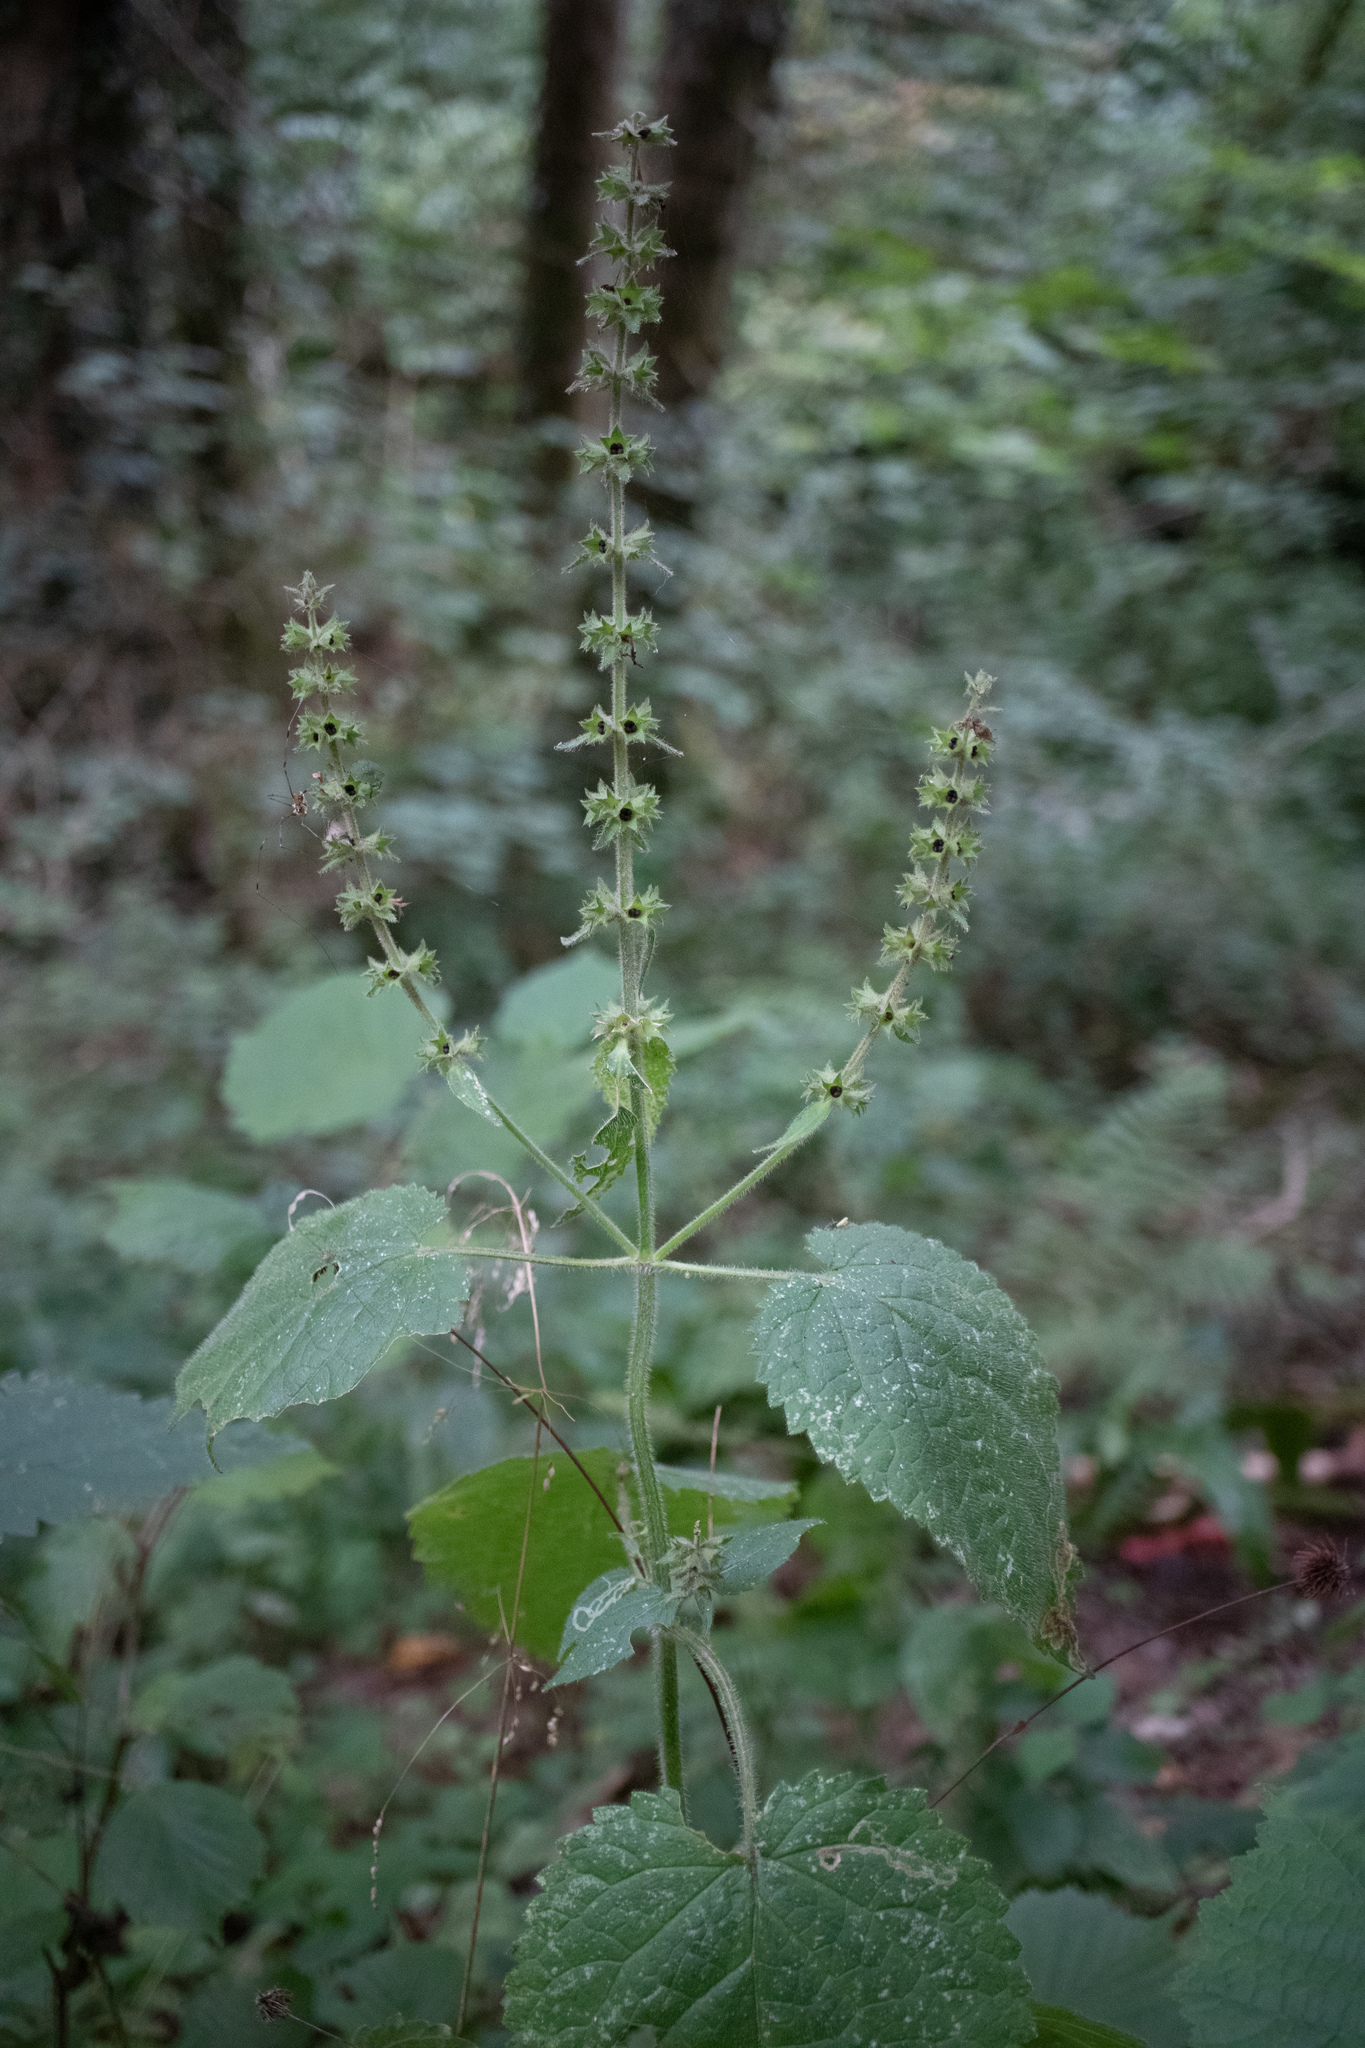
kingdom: Plantae
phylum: Tracheophyta
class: Magnoliopsida
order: Lamiales
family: Lamiaceae
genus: Stachys
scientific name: Stachys sylvatica
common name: Hedge woundwort
